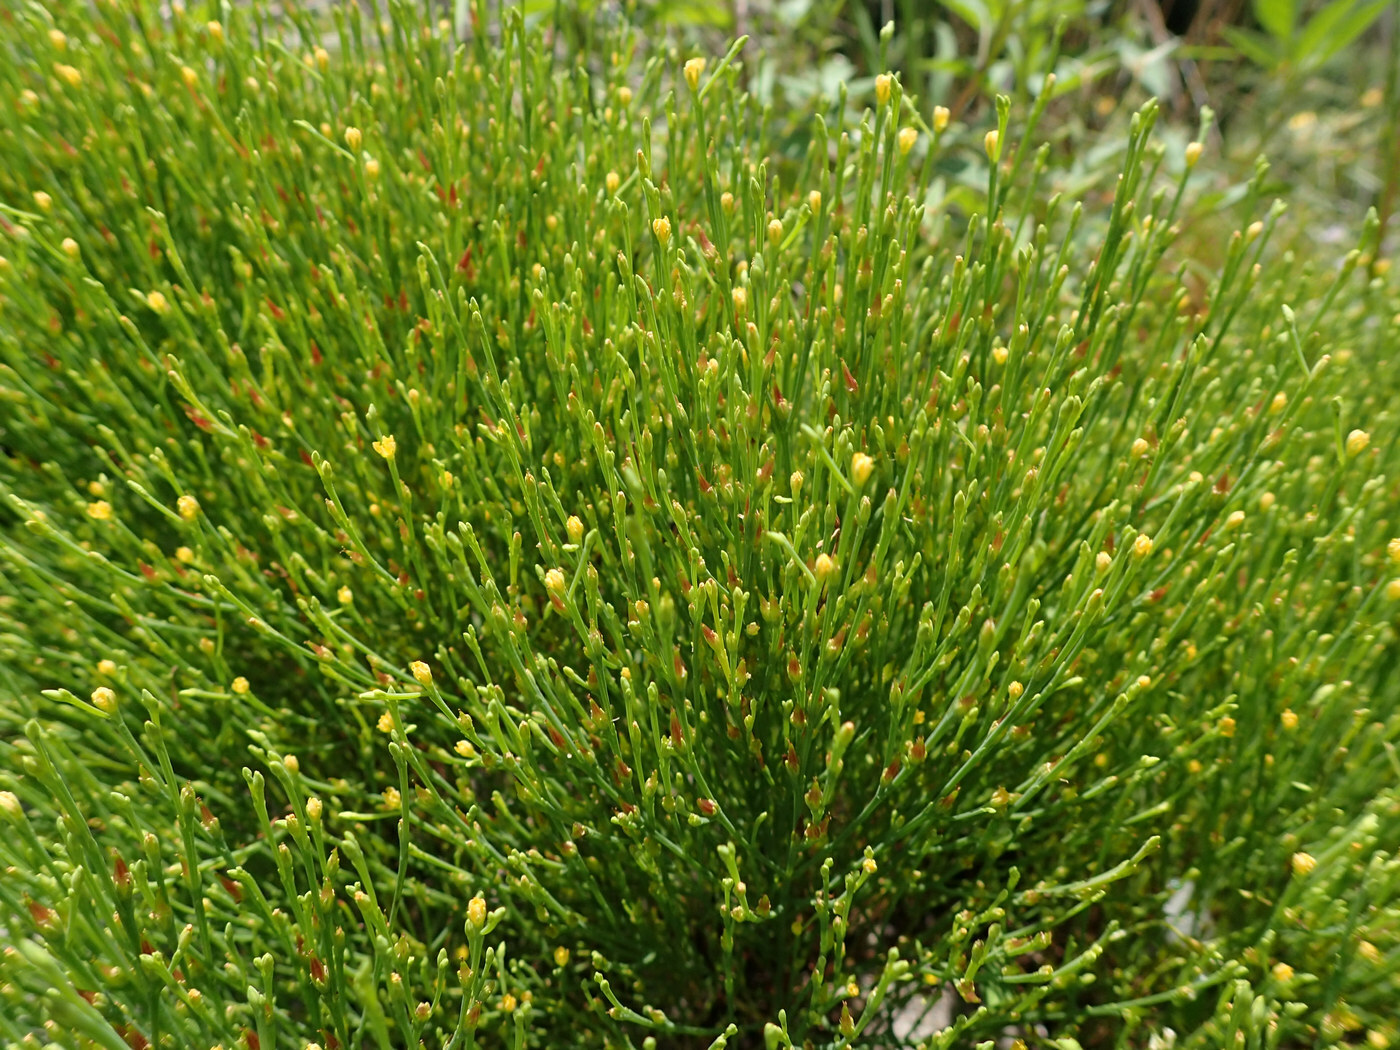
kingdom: Plantae
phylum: Tracheophyta
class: Magnoliopsida
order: Malpighiales
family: Hypericaceae
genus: Hypericum
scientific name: Hypericum gentianoides
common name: Gentian-leaved st. john's-wort
